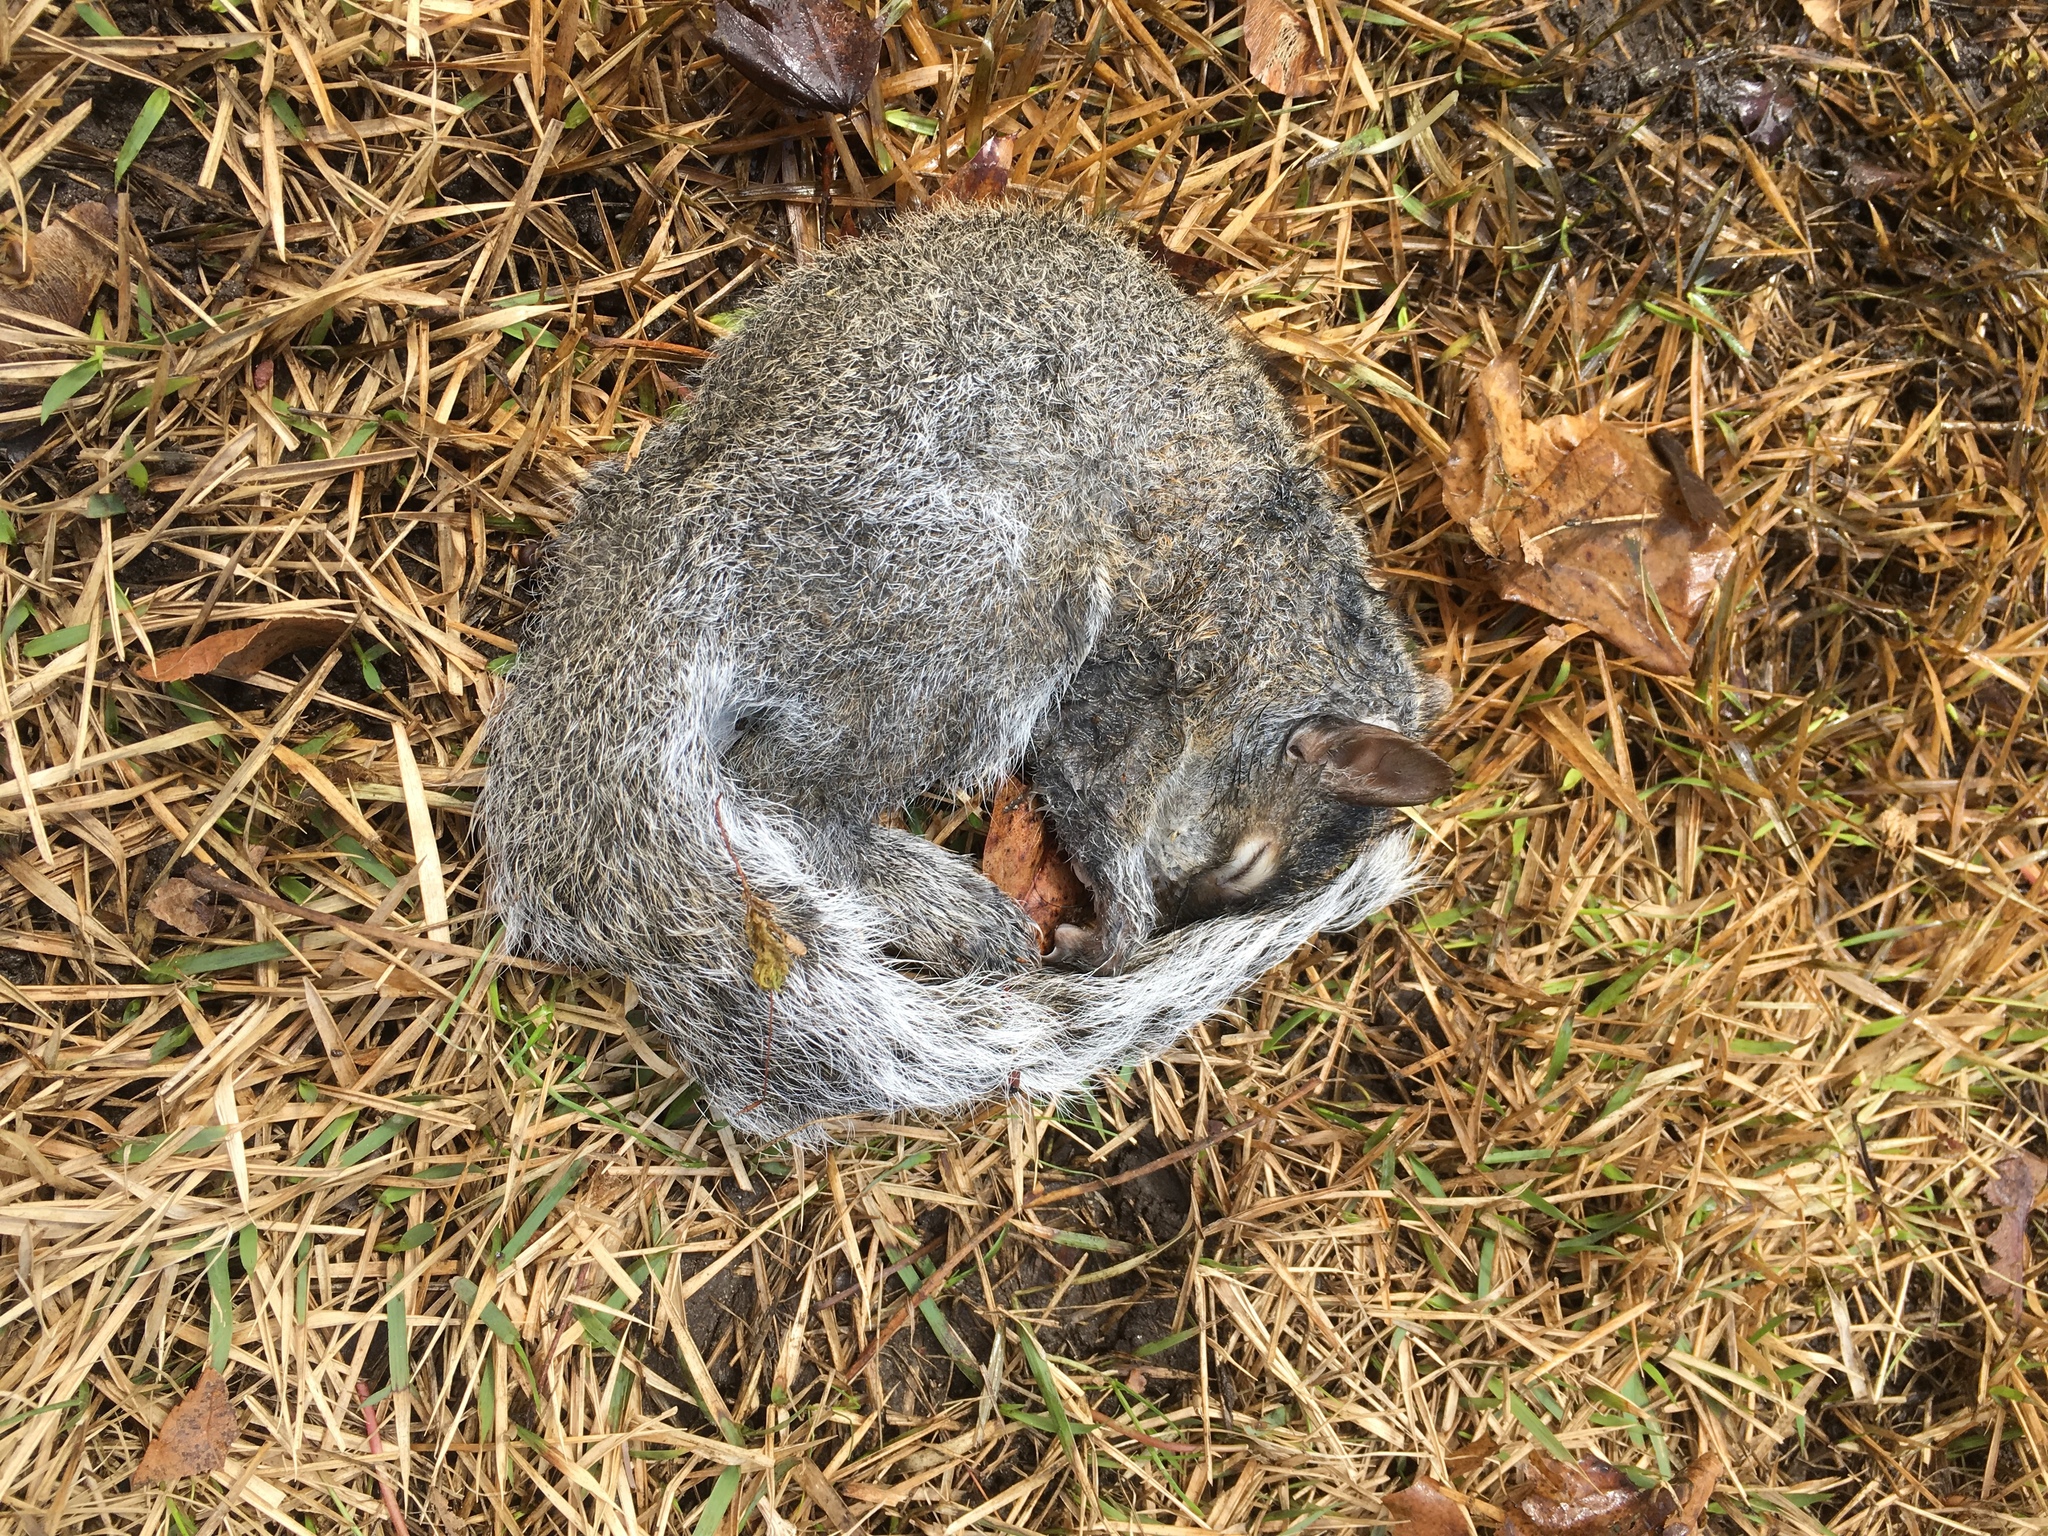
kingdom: Animalia
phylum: Chordata
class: Mammalia
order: Rodentia
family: Sciuridae
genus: Sciurus
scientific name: Sciurus carolinensis
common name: Eastern gray squirrel
